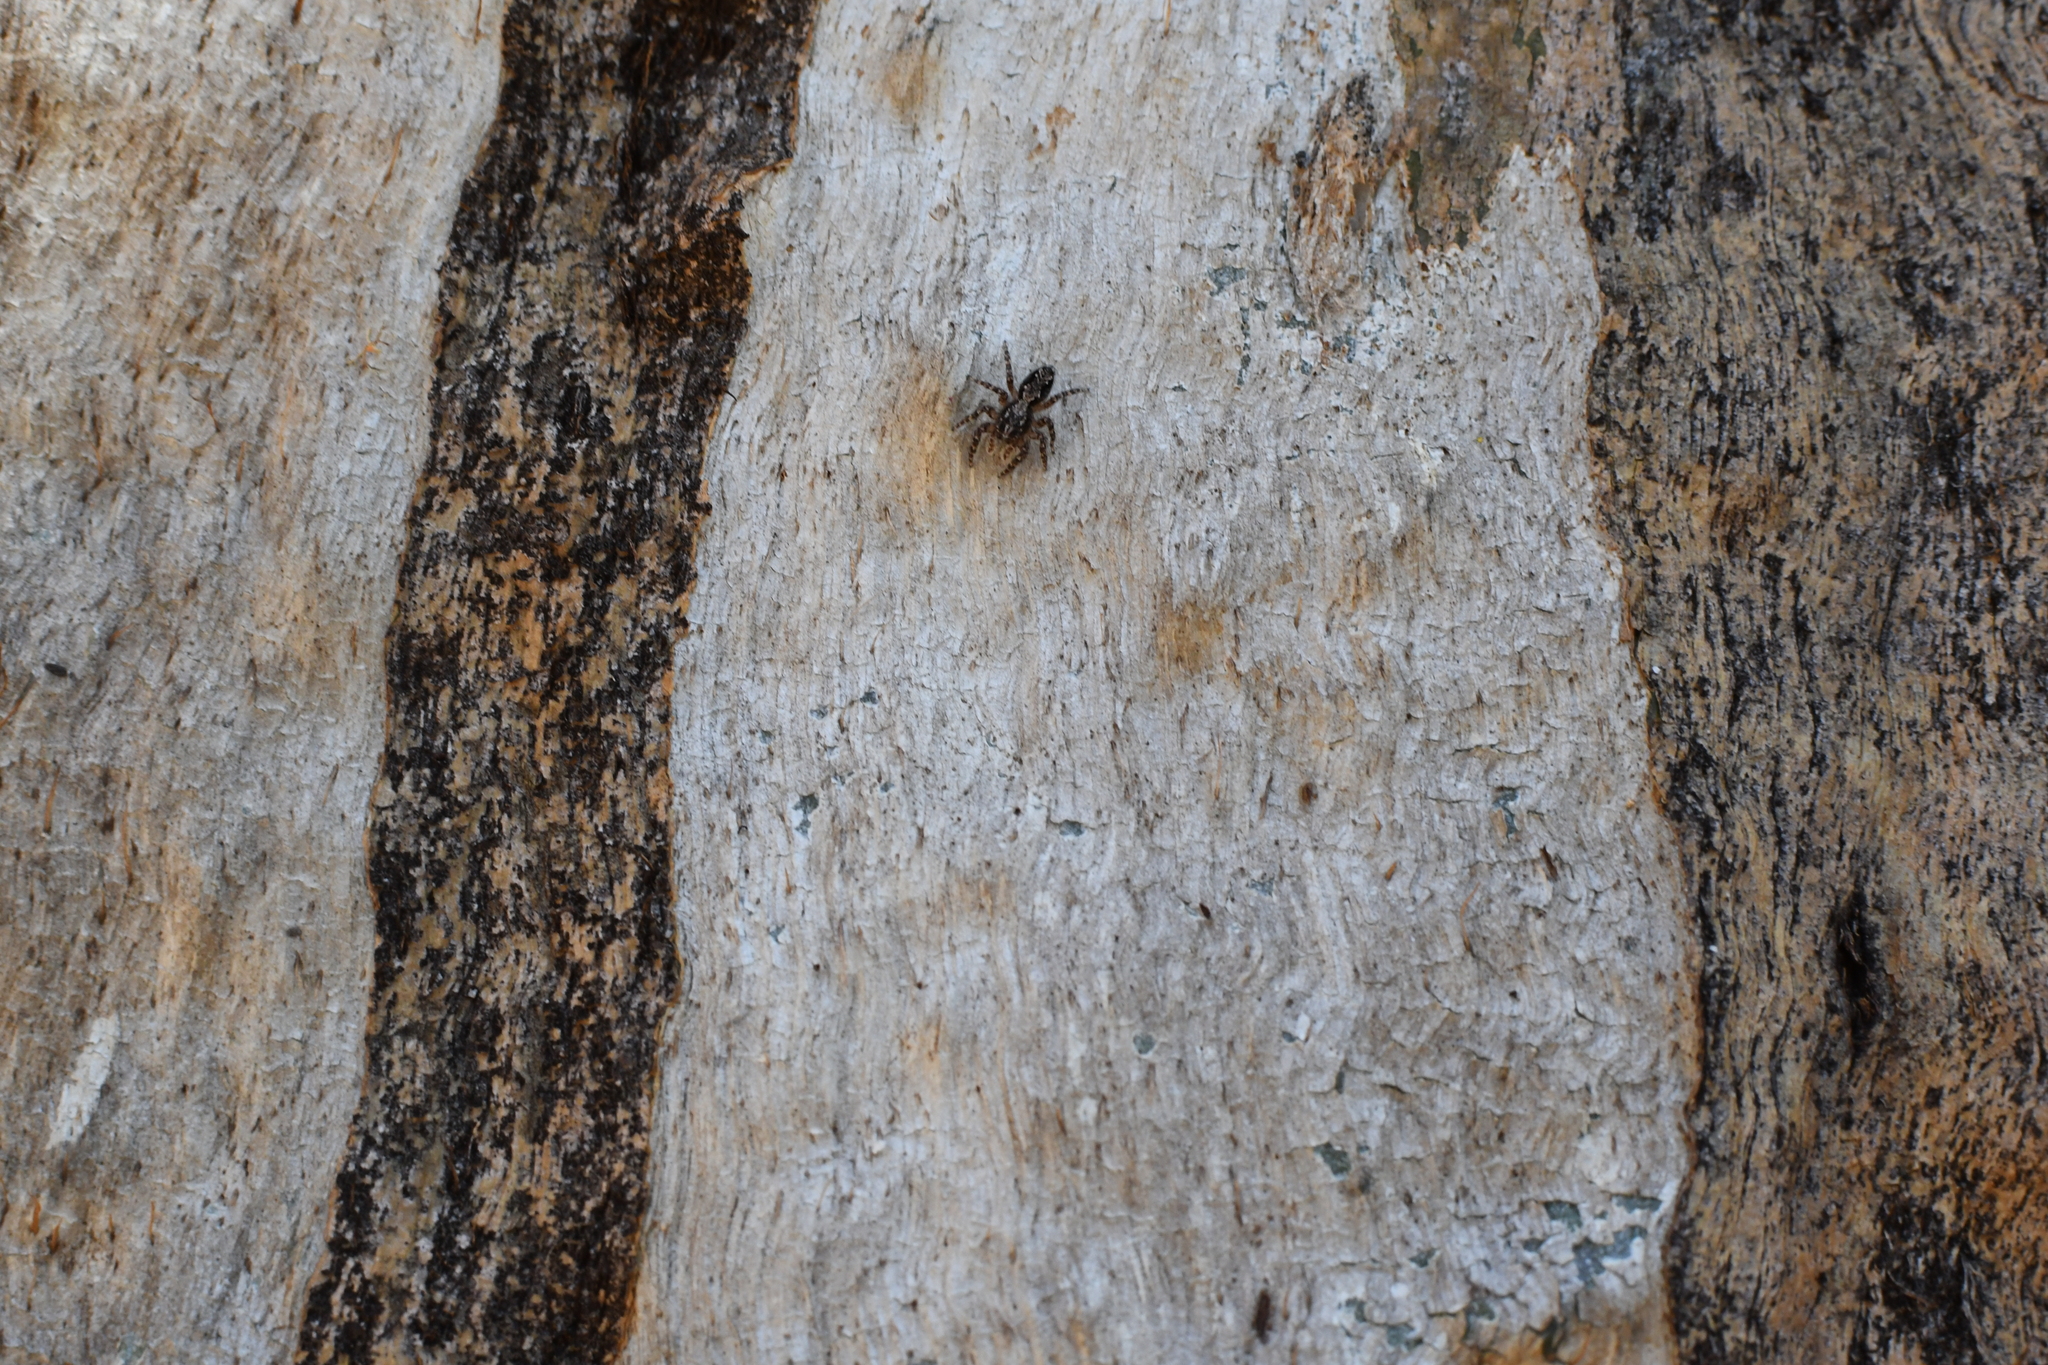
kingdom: Animalia
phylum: Arthropoda
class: Arachnida
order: Araneae
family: Salticidae
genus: Clynotis
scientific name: Clynotis severus
